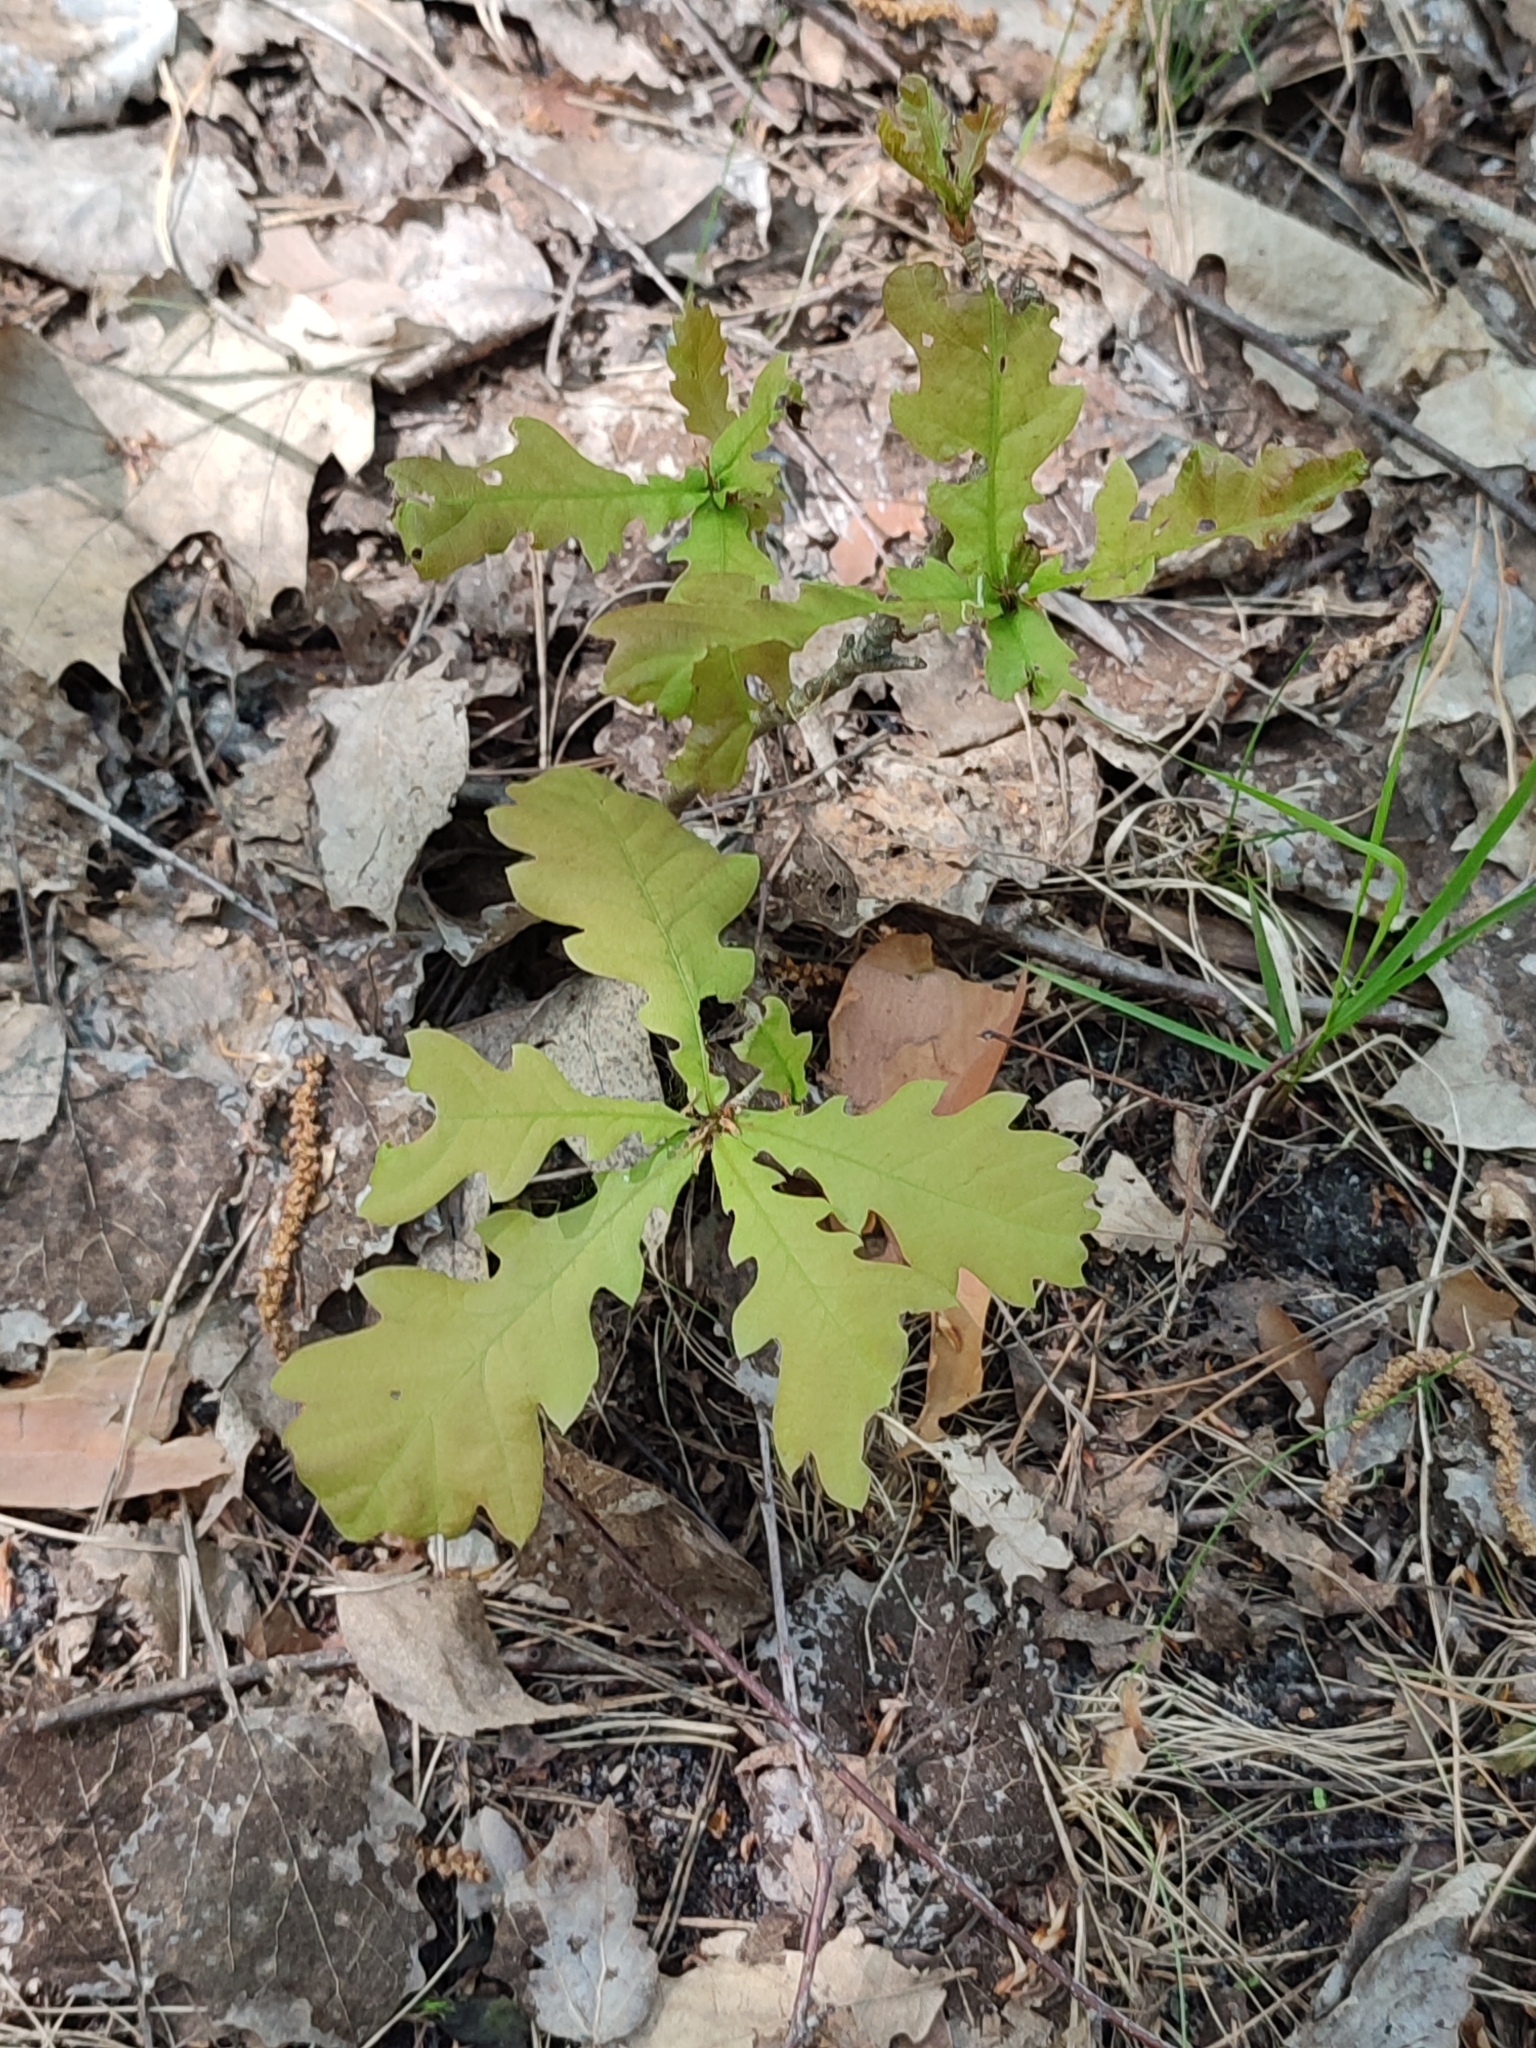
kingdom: Plantae
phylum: Tracheophyta
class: Magnoliopsida
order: Fagales
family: Fagaceae
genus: Quercus
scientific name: Quercus robur
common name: Pedunculate oak
